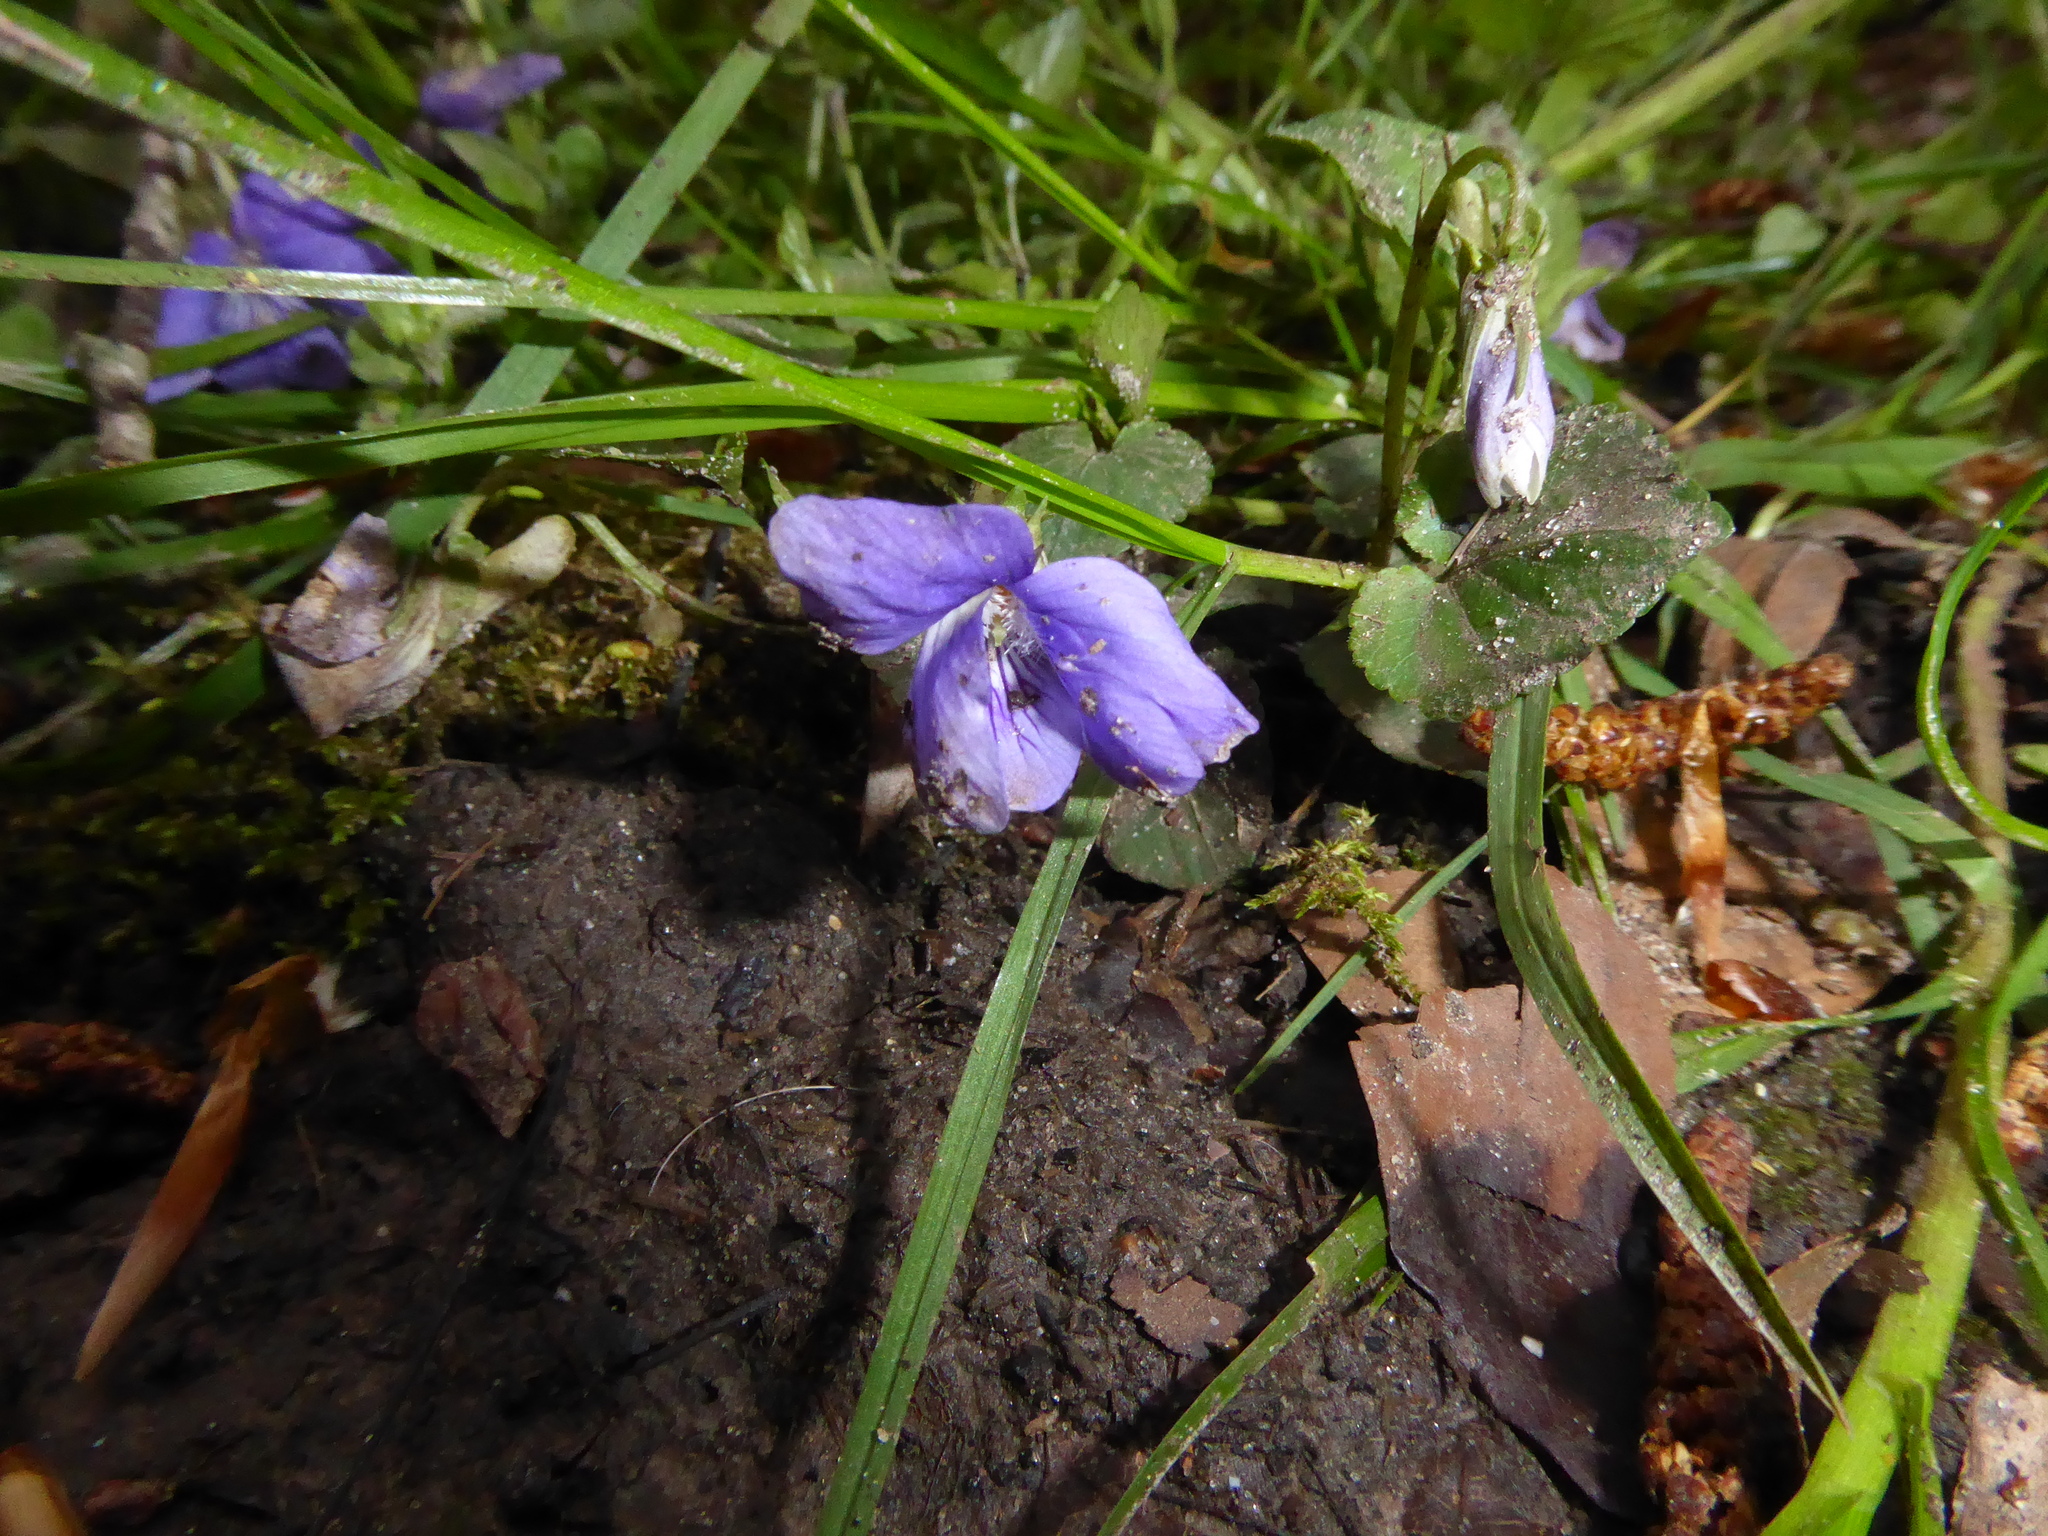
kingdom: Plantae
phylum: Tracheophyta
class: Magnoliopsida
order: Malpighiales
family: Violaceae
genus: Viola
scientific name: Viola riviniana
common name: Common dog-violet
